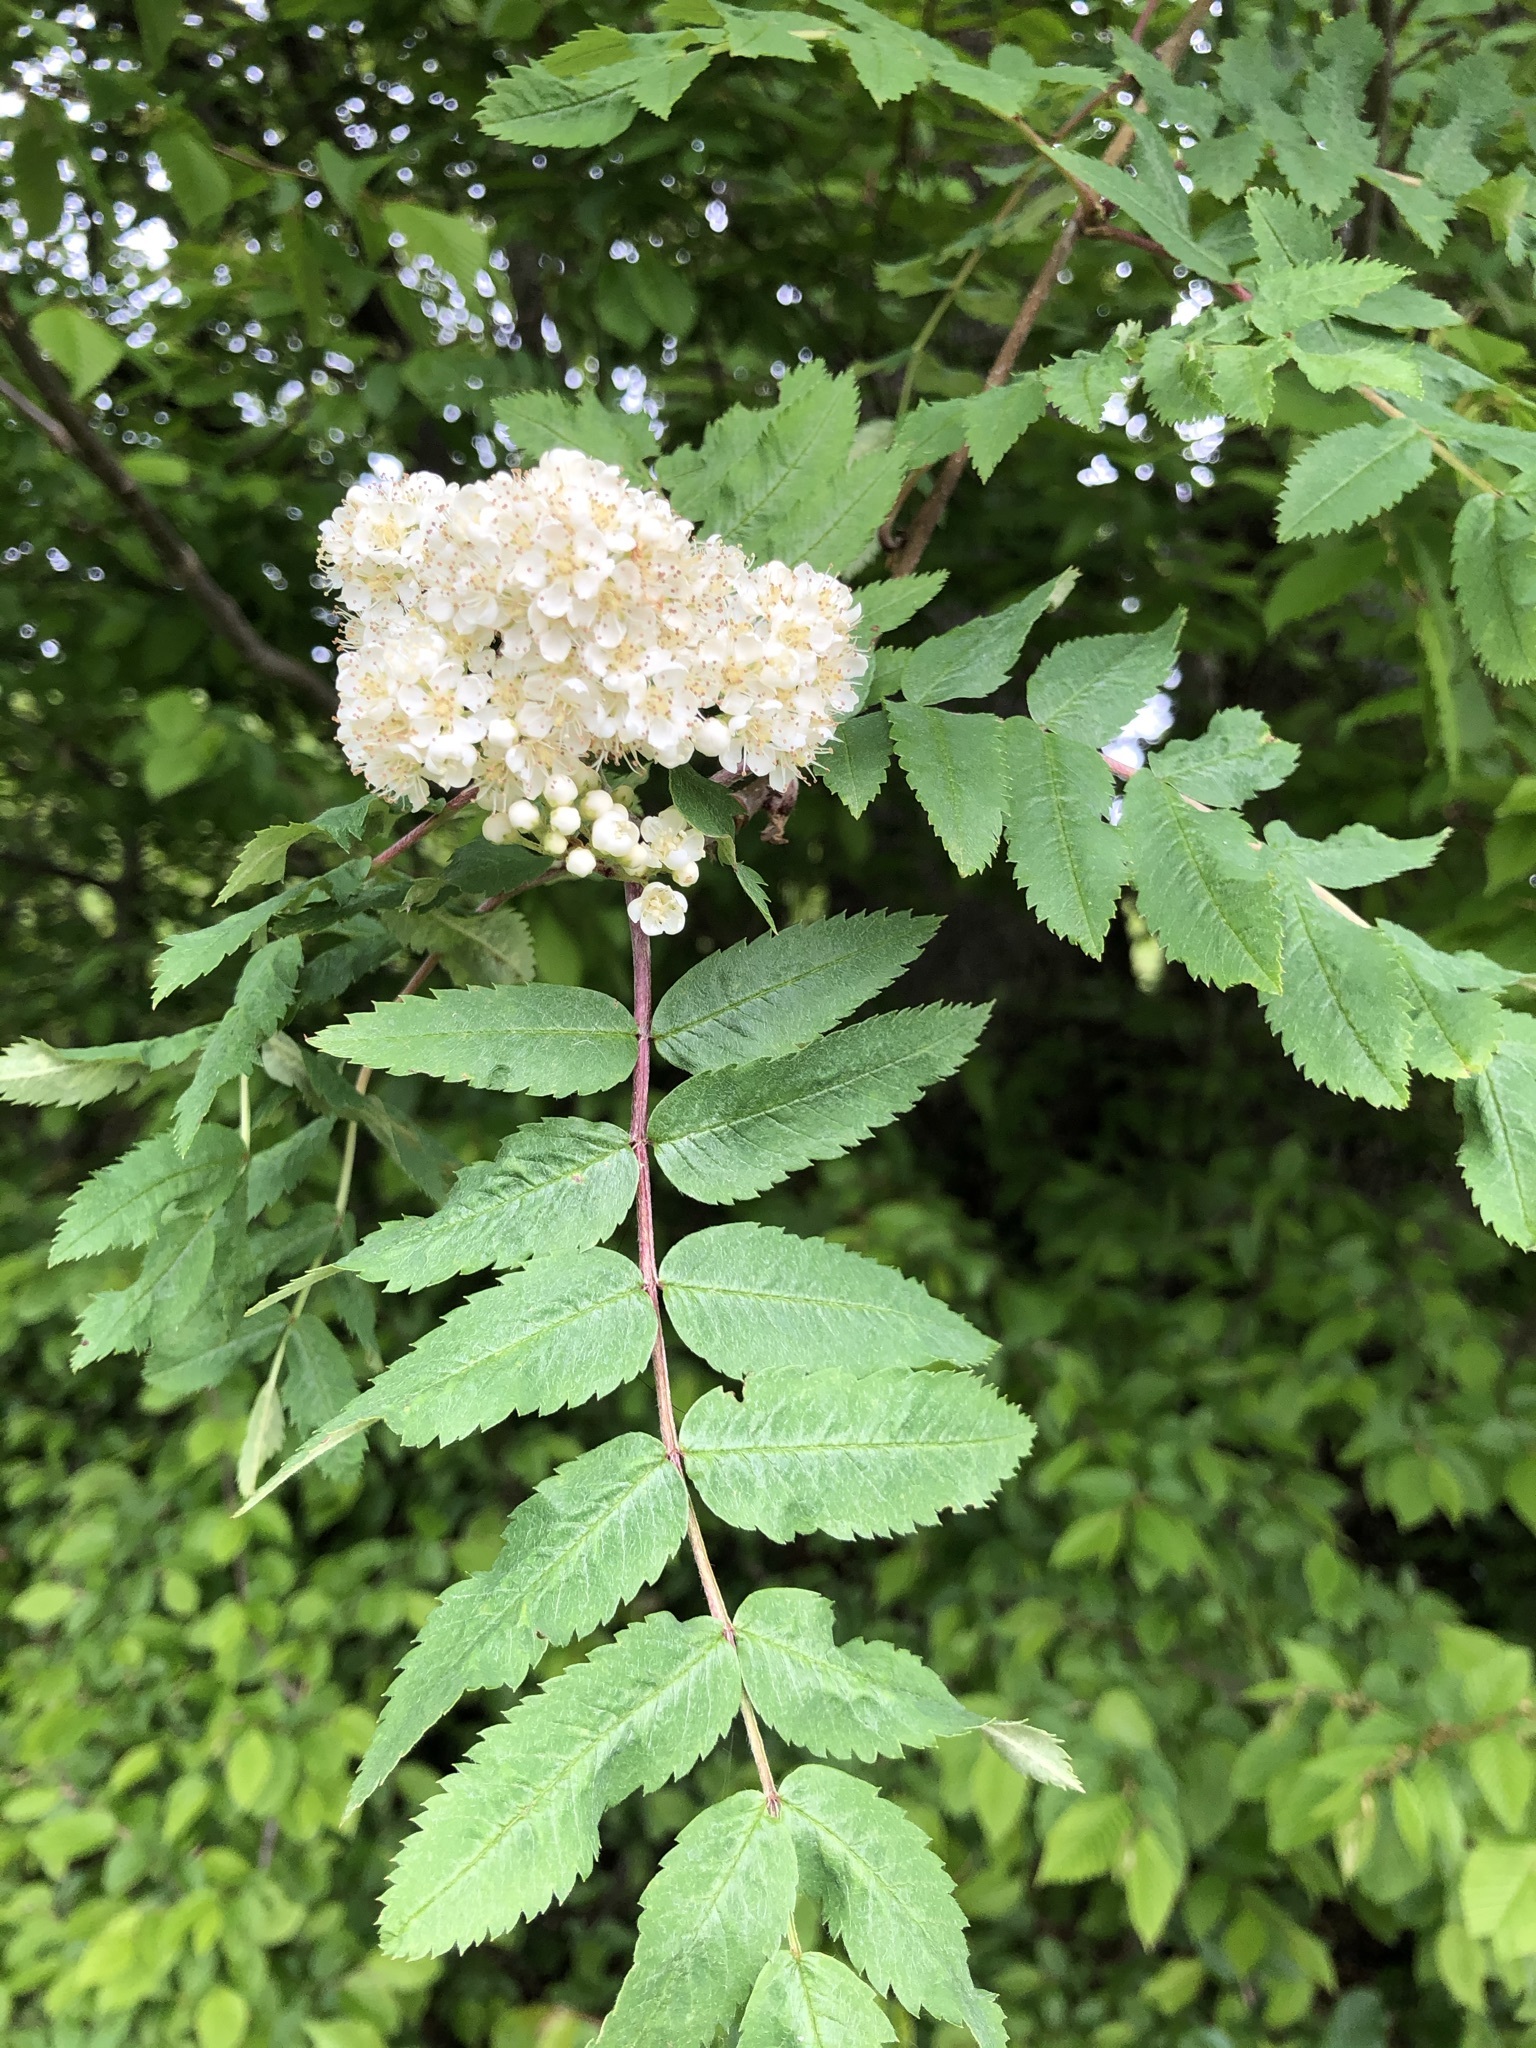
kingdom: Plantae
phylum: Tracheophyta
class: Magnoliopsida
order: Rosales
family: Rosaceae
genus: Sorbus
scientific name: Sorbus aucuparia
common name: Rowan
